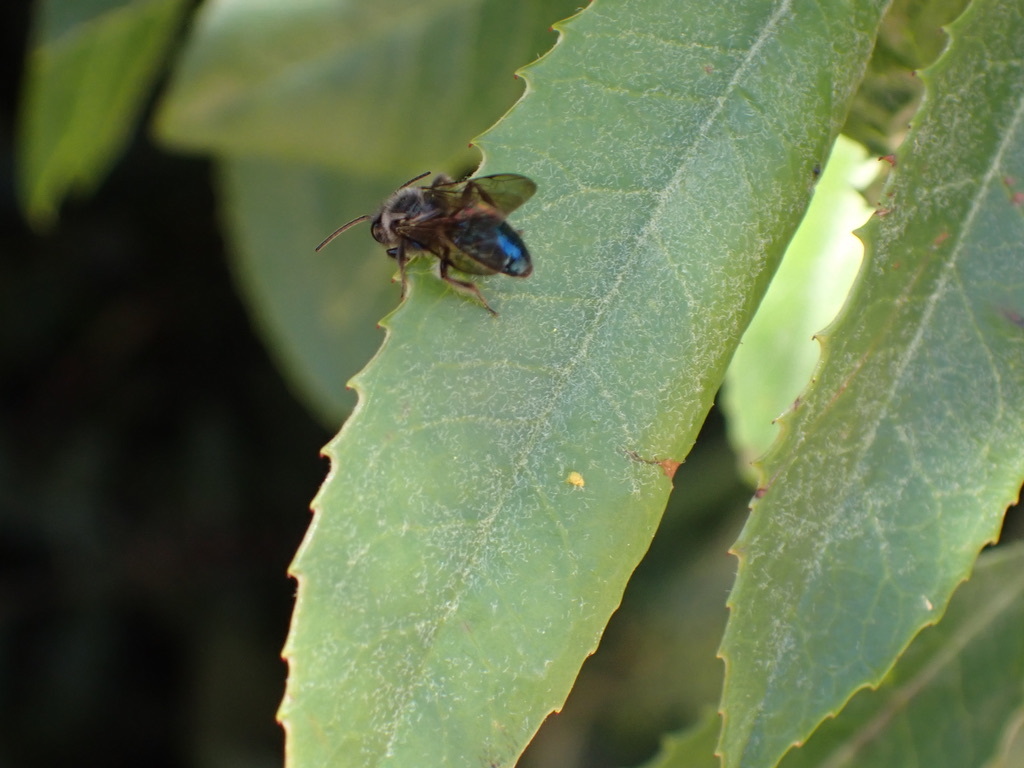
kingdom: Animalia
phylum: Arthropoda
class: Insecta
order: Hymenoptera
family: Andrenidae
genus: Andrena
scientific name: Andrena cerasifolii
